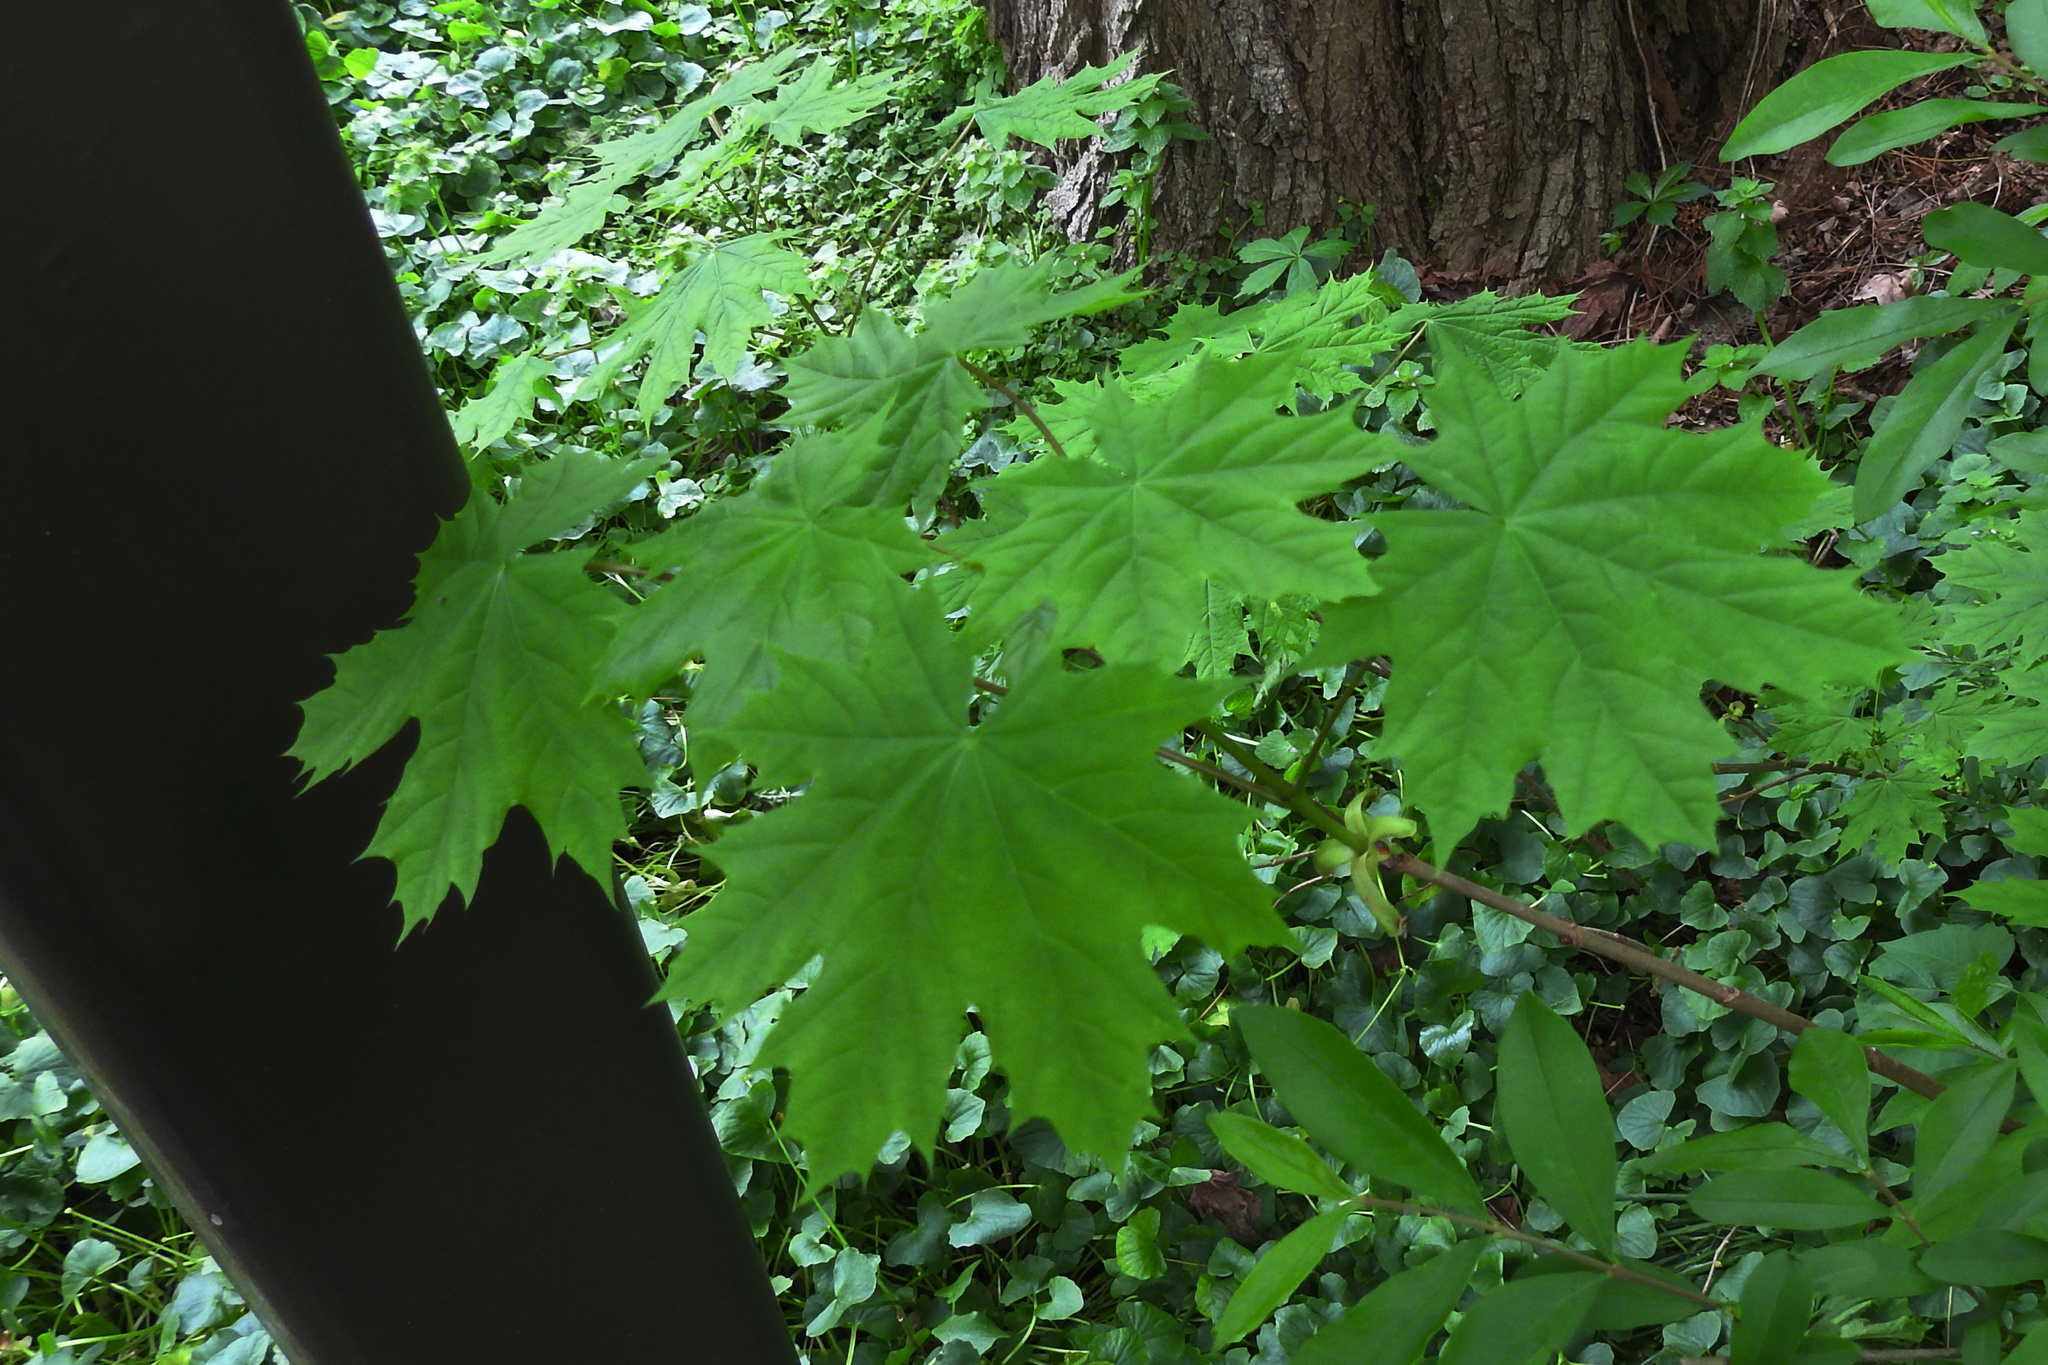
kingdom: Plantae
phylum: Tracheophyta
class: Magnoliopsida
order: Sapindales
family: Sapindaceae
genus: Acer
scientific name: Acer platanoides
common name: Norway maple
